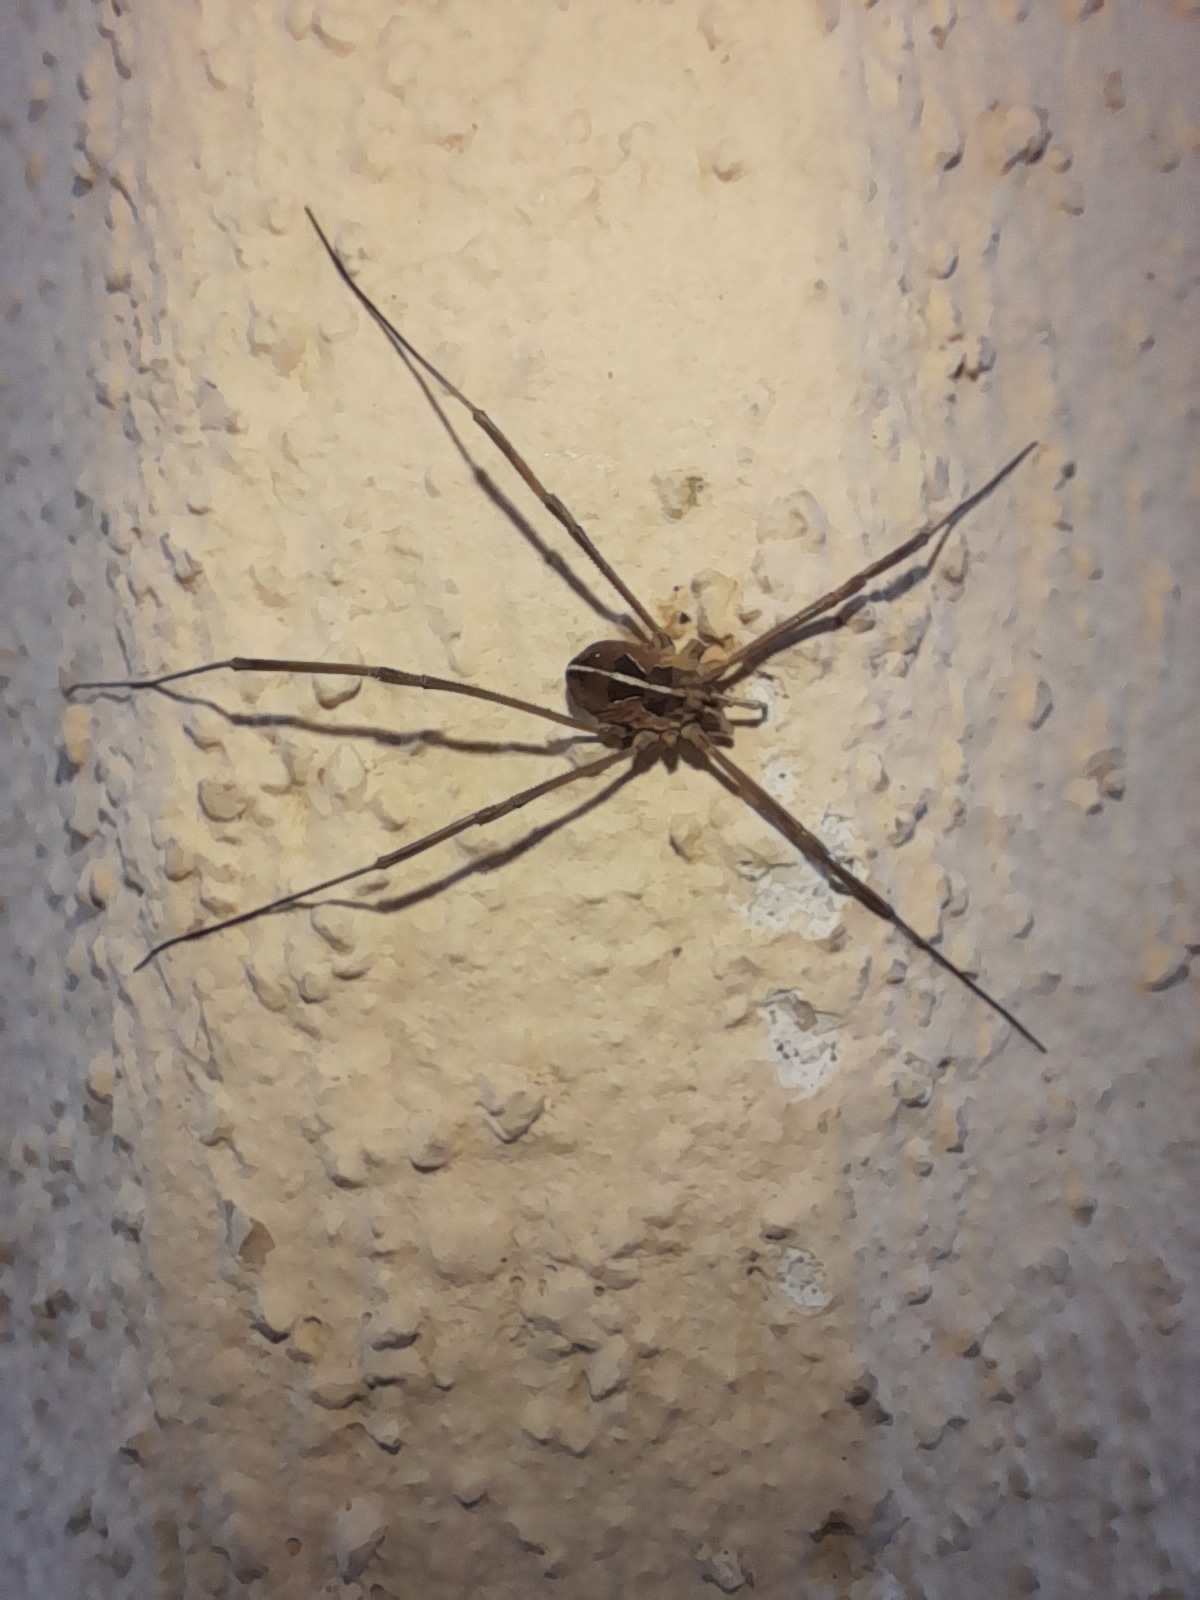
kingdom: Animalia
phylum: Arthropoda
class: Arachnida
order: Opiliones
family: Phalangiidae
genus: Metaphalangium
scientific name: Metaphalangium cirtanum
